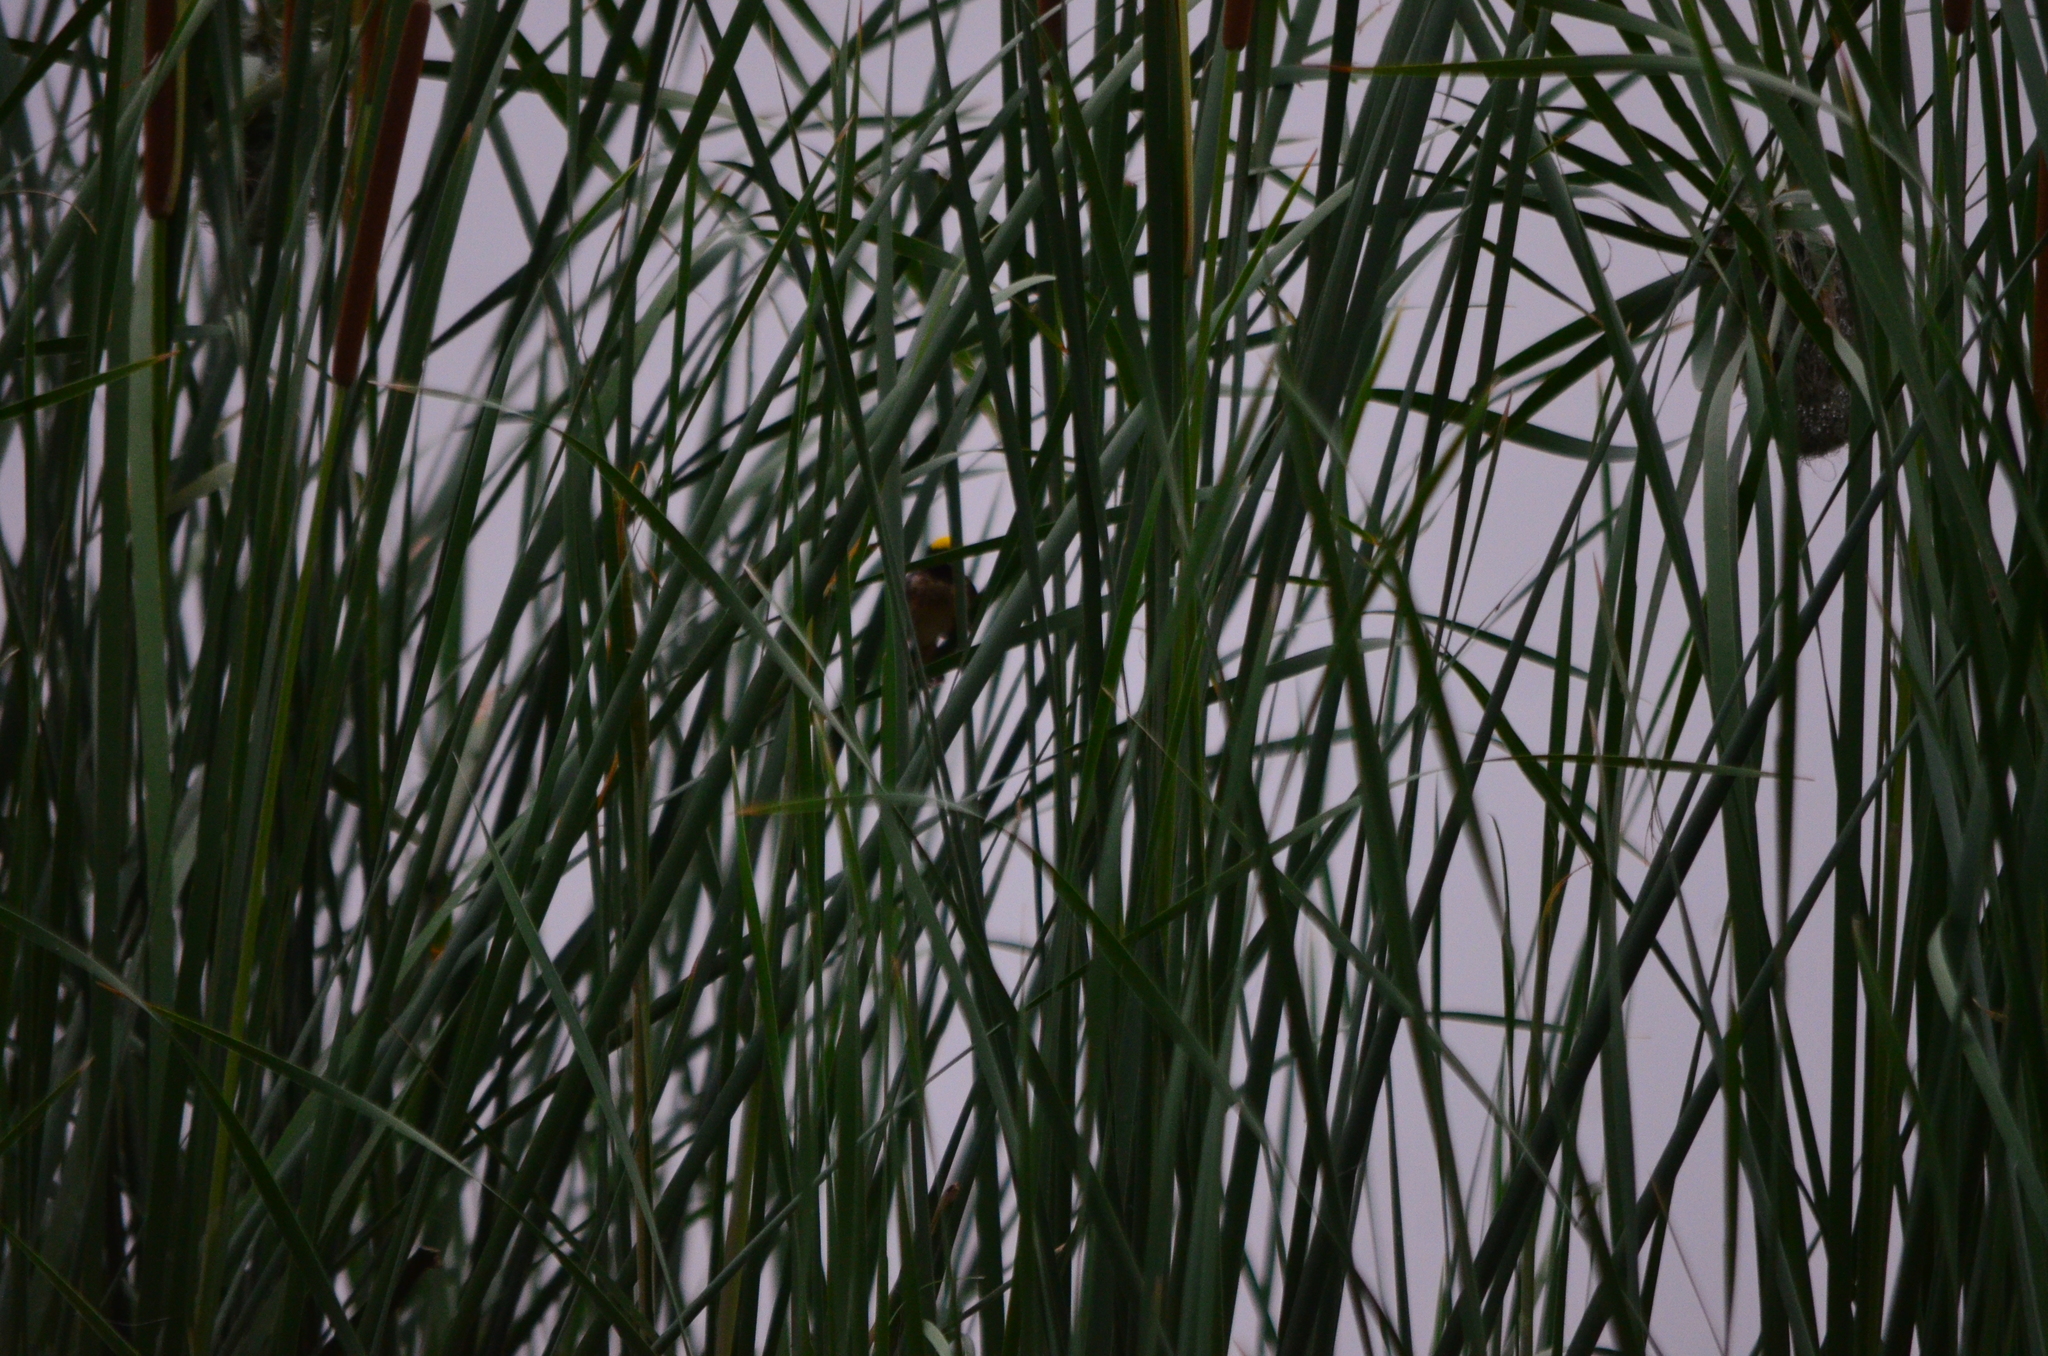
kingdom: Animalia
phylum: Chordata
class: Aves
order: Passeriformes
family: Ploceidae
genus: Ploceus
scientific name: Ploceus manyar
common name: Streaked weaver
